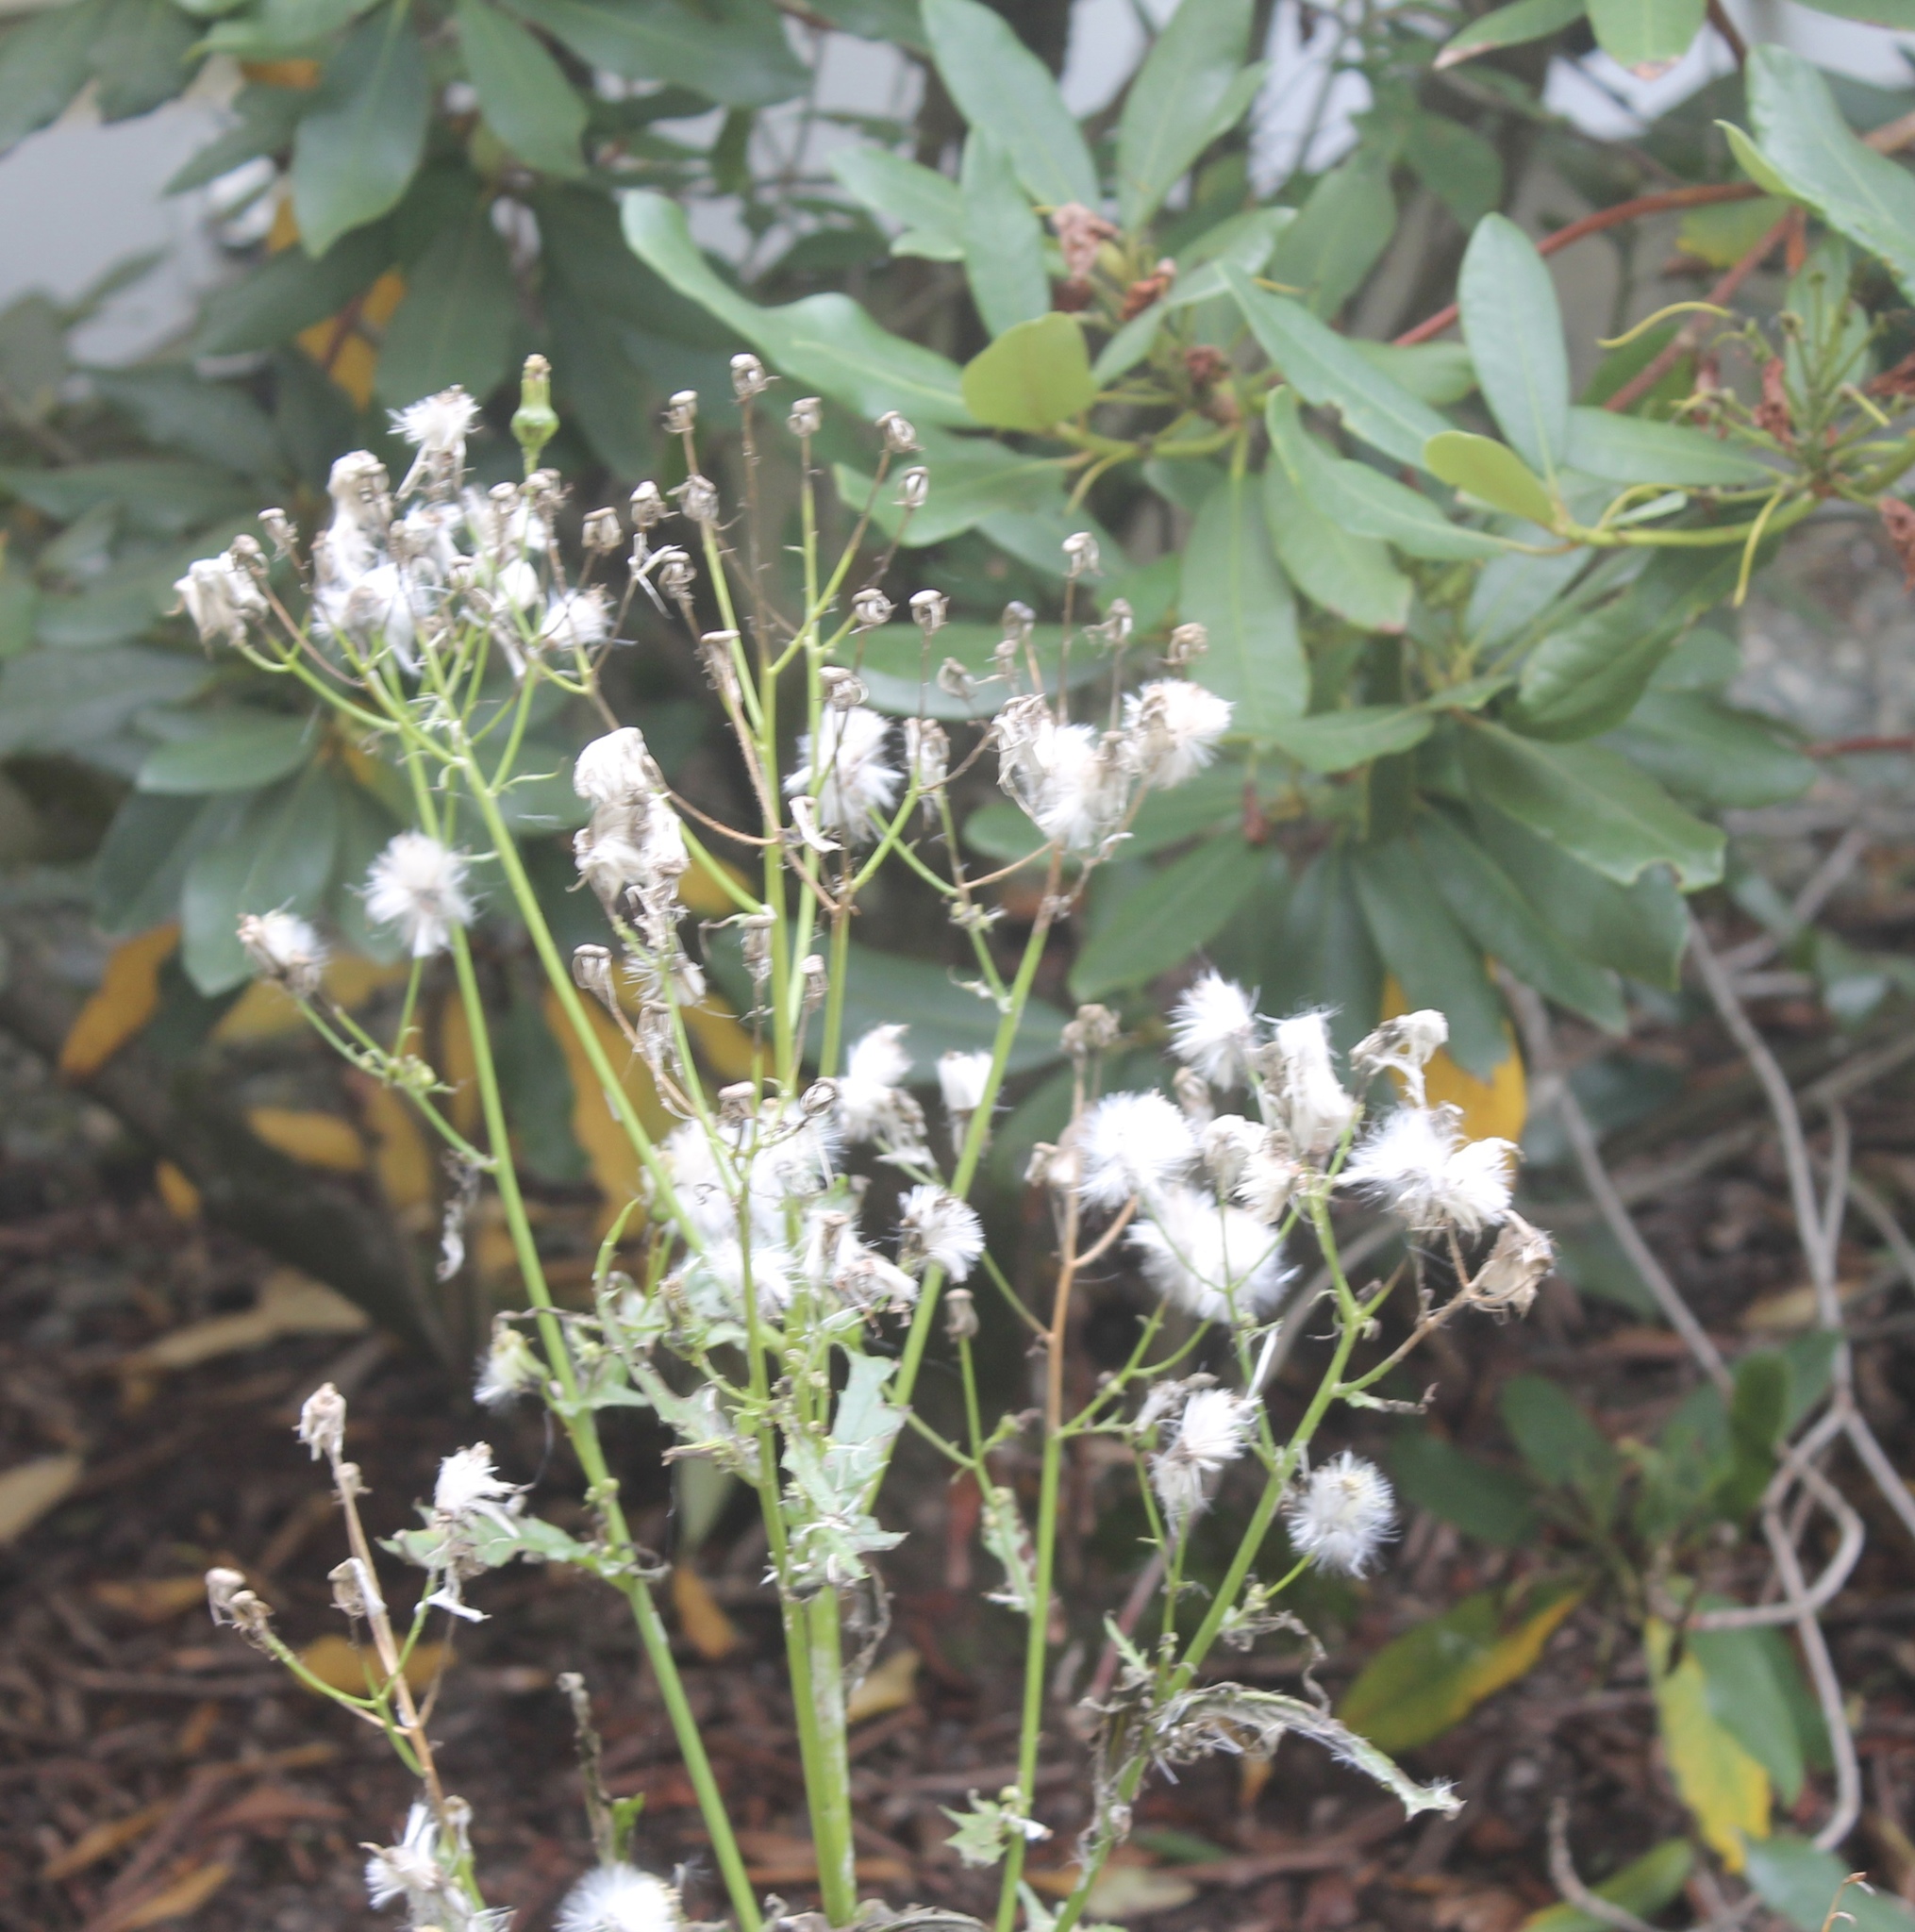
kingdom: Plantae
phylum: Tracheophyta
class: Magnoliopsida
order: Asterales
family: Asteraceae
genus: Erechtites
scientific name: Erechtites hieraciifolius
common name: American burnweed
